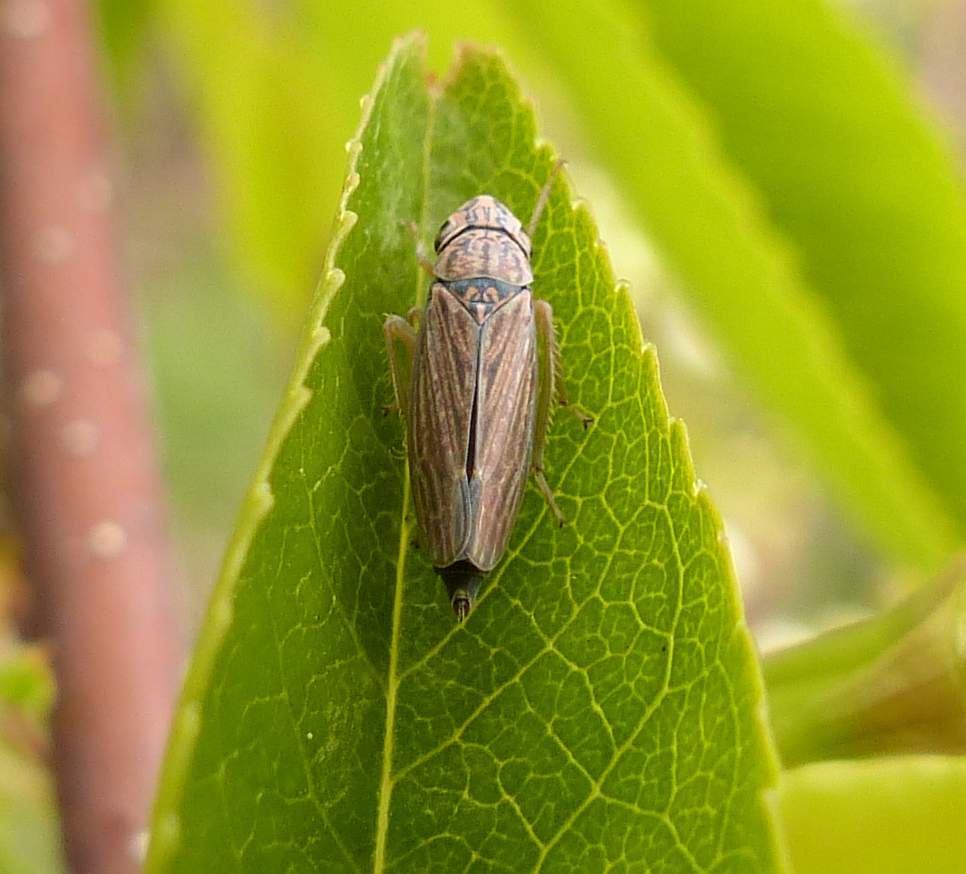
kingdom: Animalia
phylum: Arthropoda
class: Insecta
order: Hemiptera
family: Cicadellidae
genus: Neokolla
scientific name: Neokolla hieroglyphica
